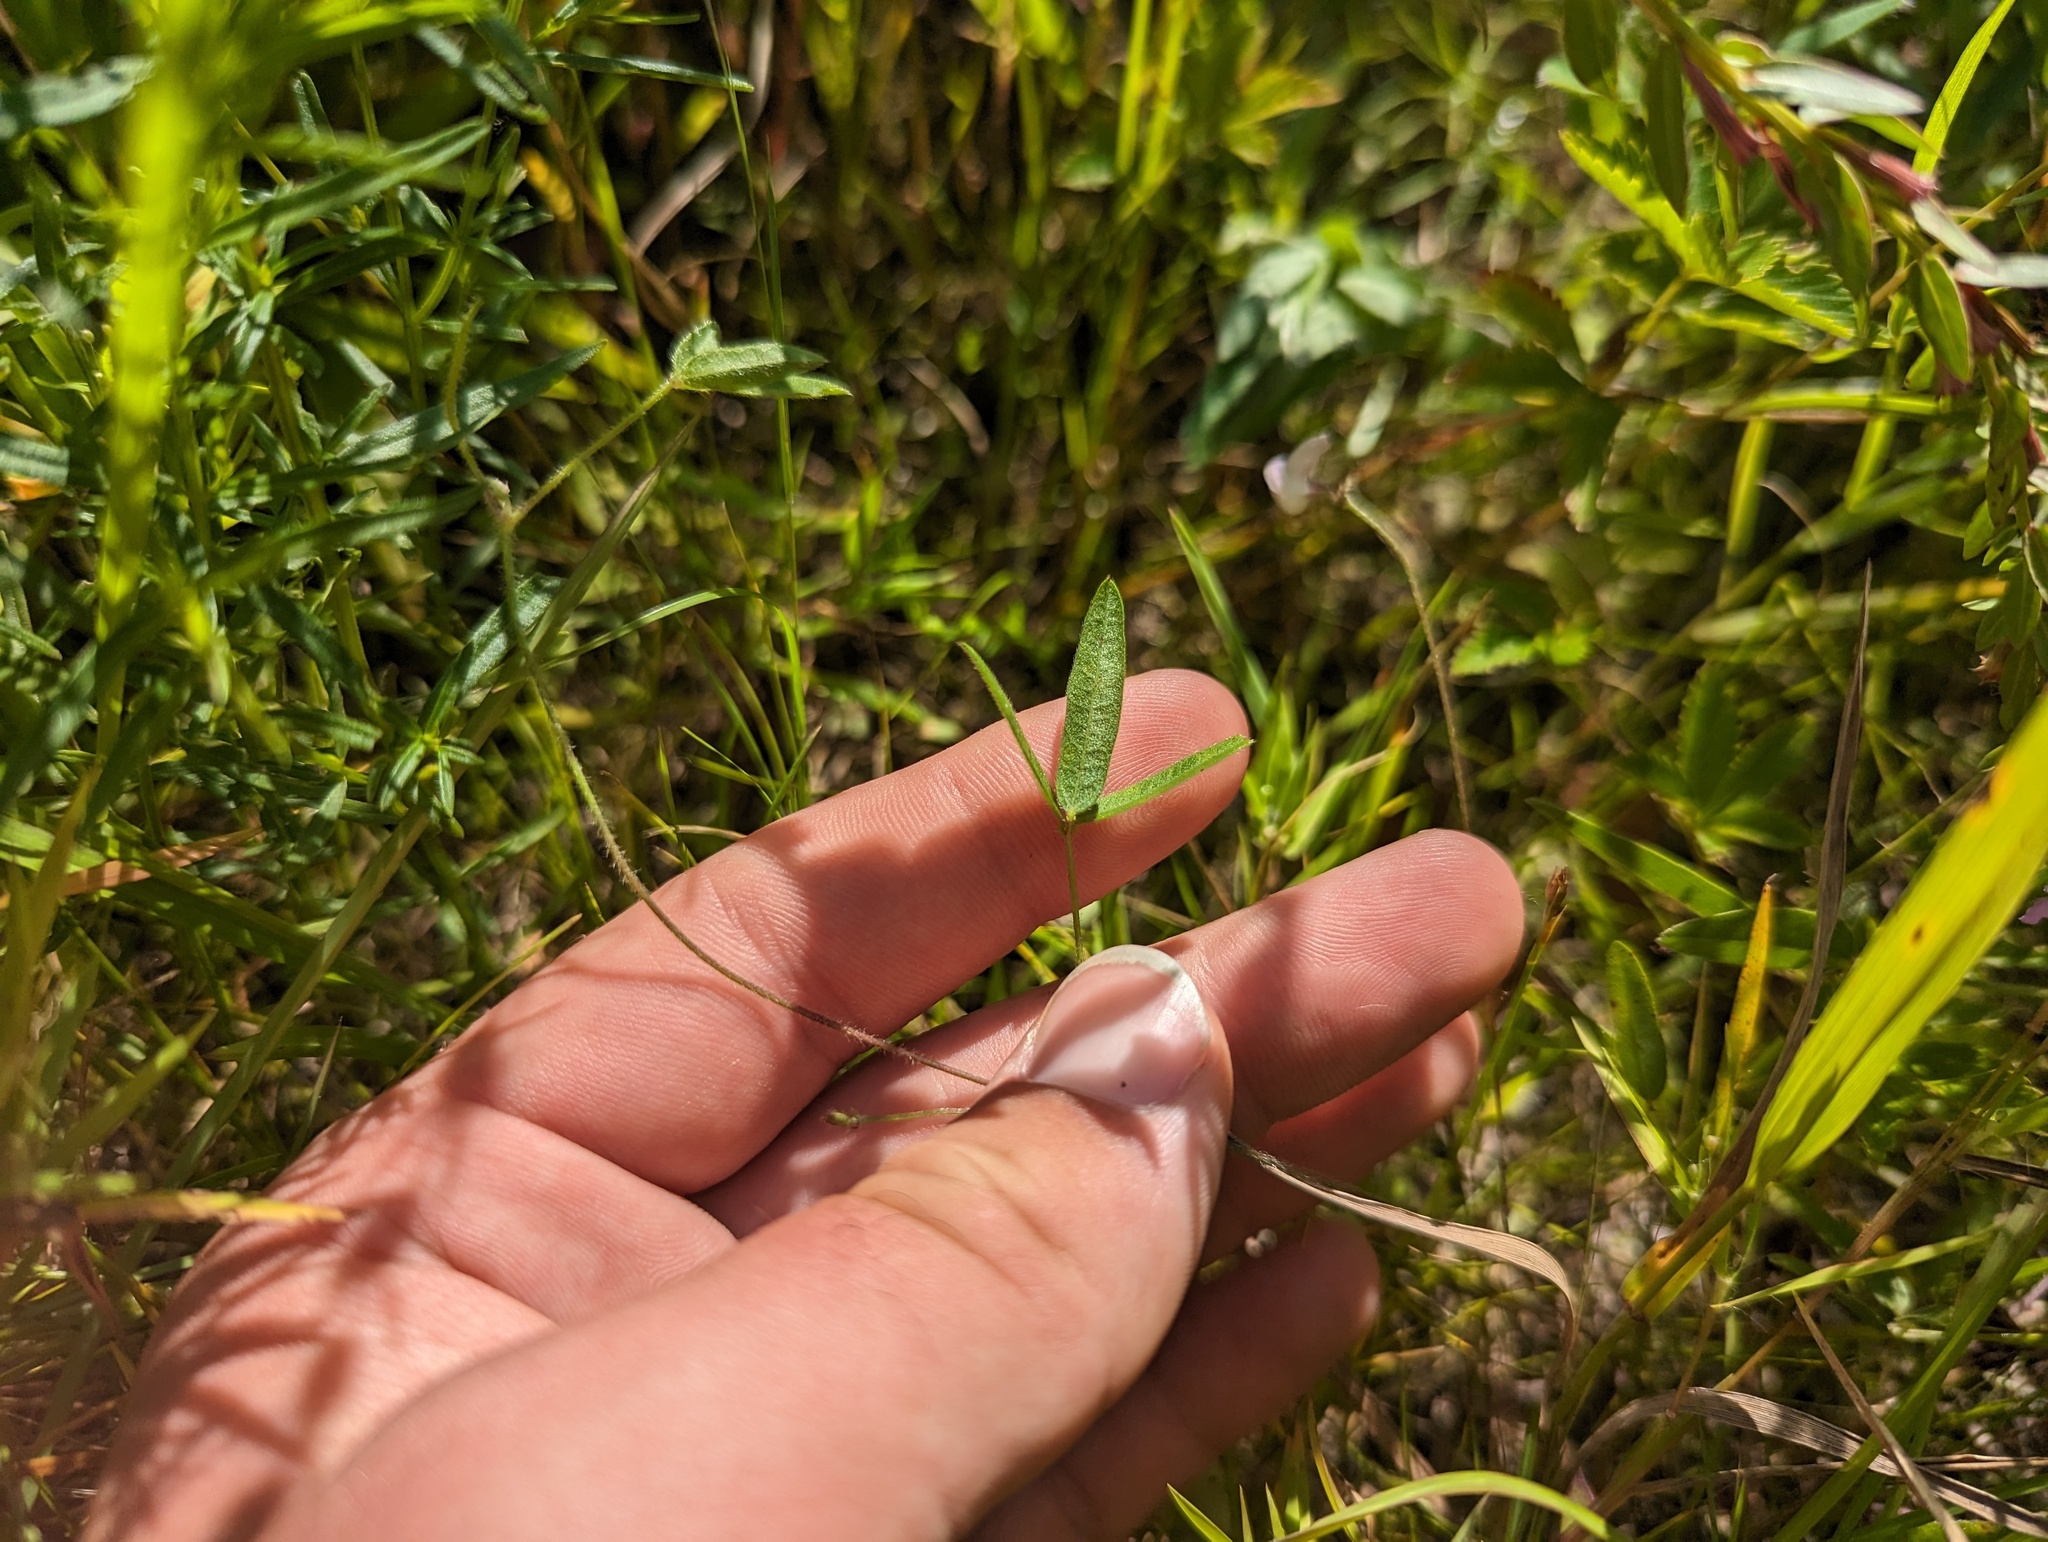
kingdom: Plantae
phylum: Tracheophyta
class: Magnoliopsida
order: Fabales
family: Fabaceae
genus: Strophostyles
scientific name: Strophostyles leiosperma
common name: Smooth-seed wild bean
